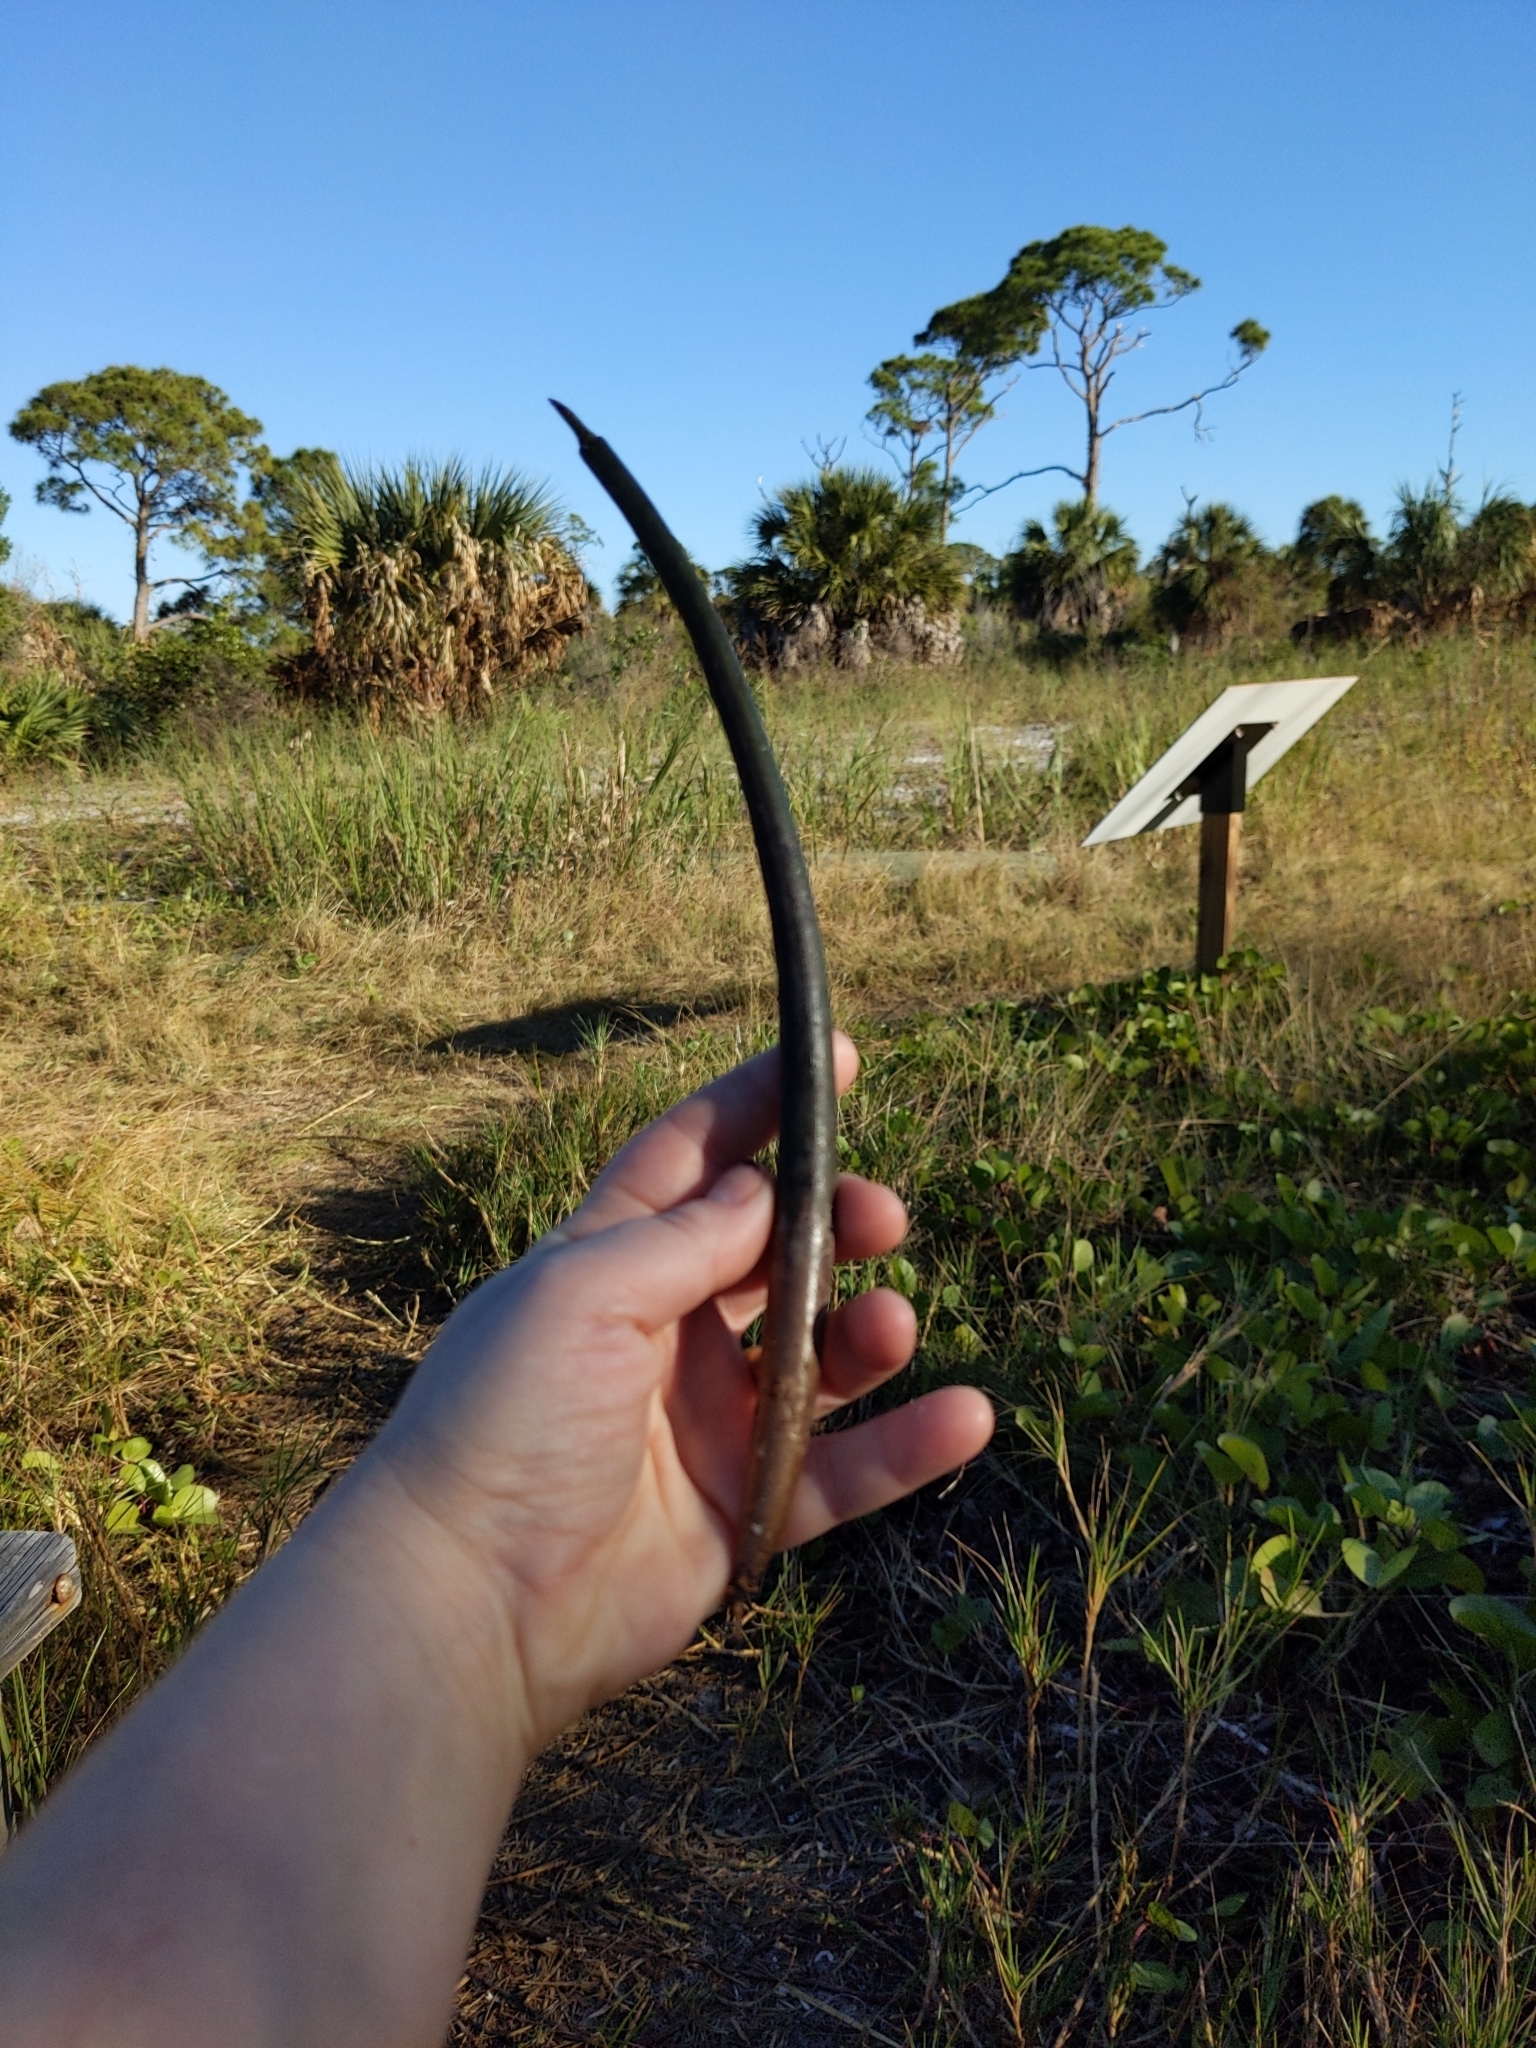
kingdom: Plantae
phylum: Tracheophyta
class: Magnoliopsida
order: Malpighiales
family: Rhizophoraceae
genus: Rhizophora
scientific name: Rhizophora mangle
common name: Red mangrove
